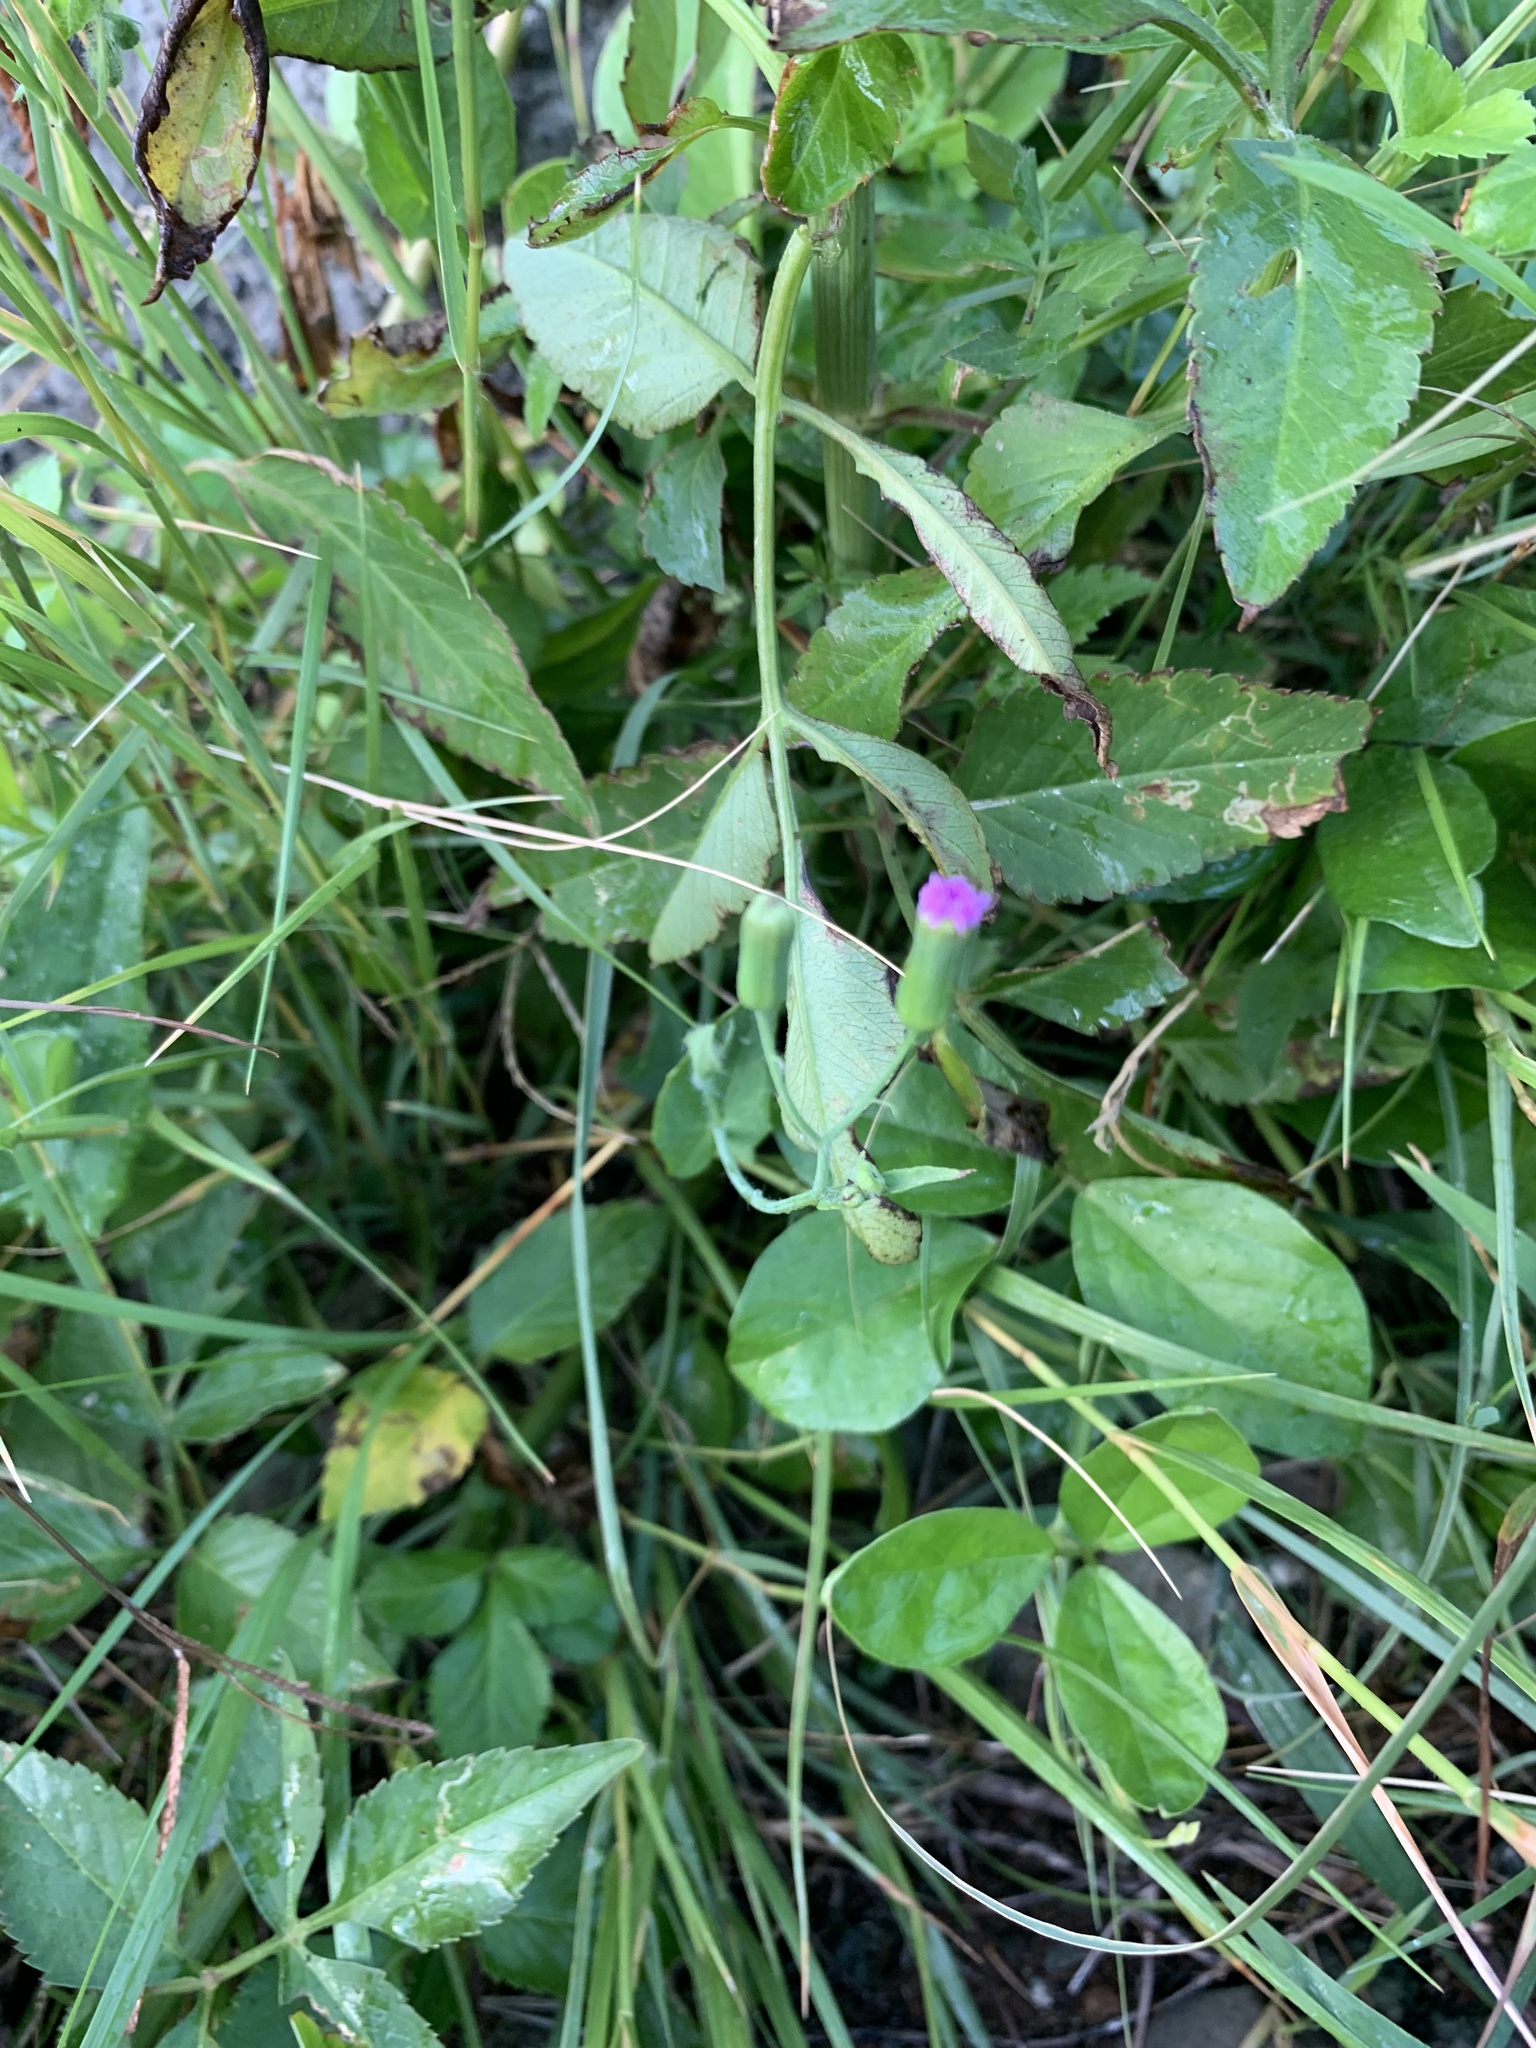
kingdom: Plantae
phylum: Tracheophyta
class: Magnoliopsida
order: Asterales
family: Asteraceae
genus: Emilia
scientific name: Emilia sonchifolia
